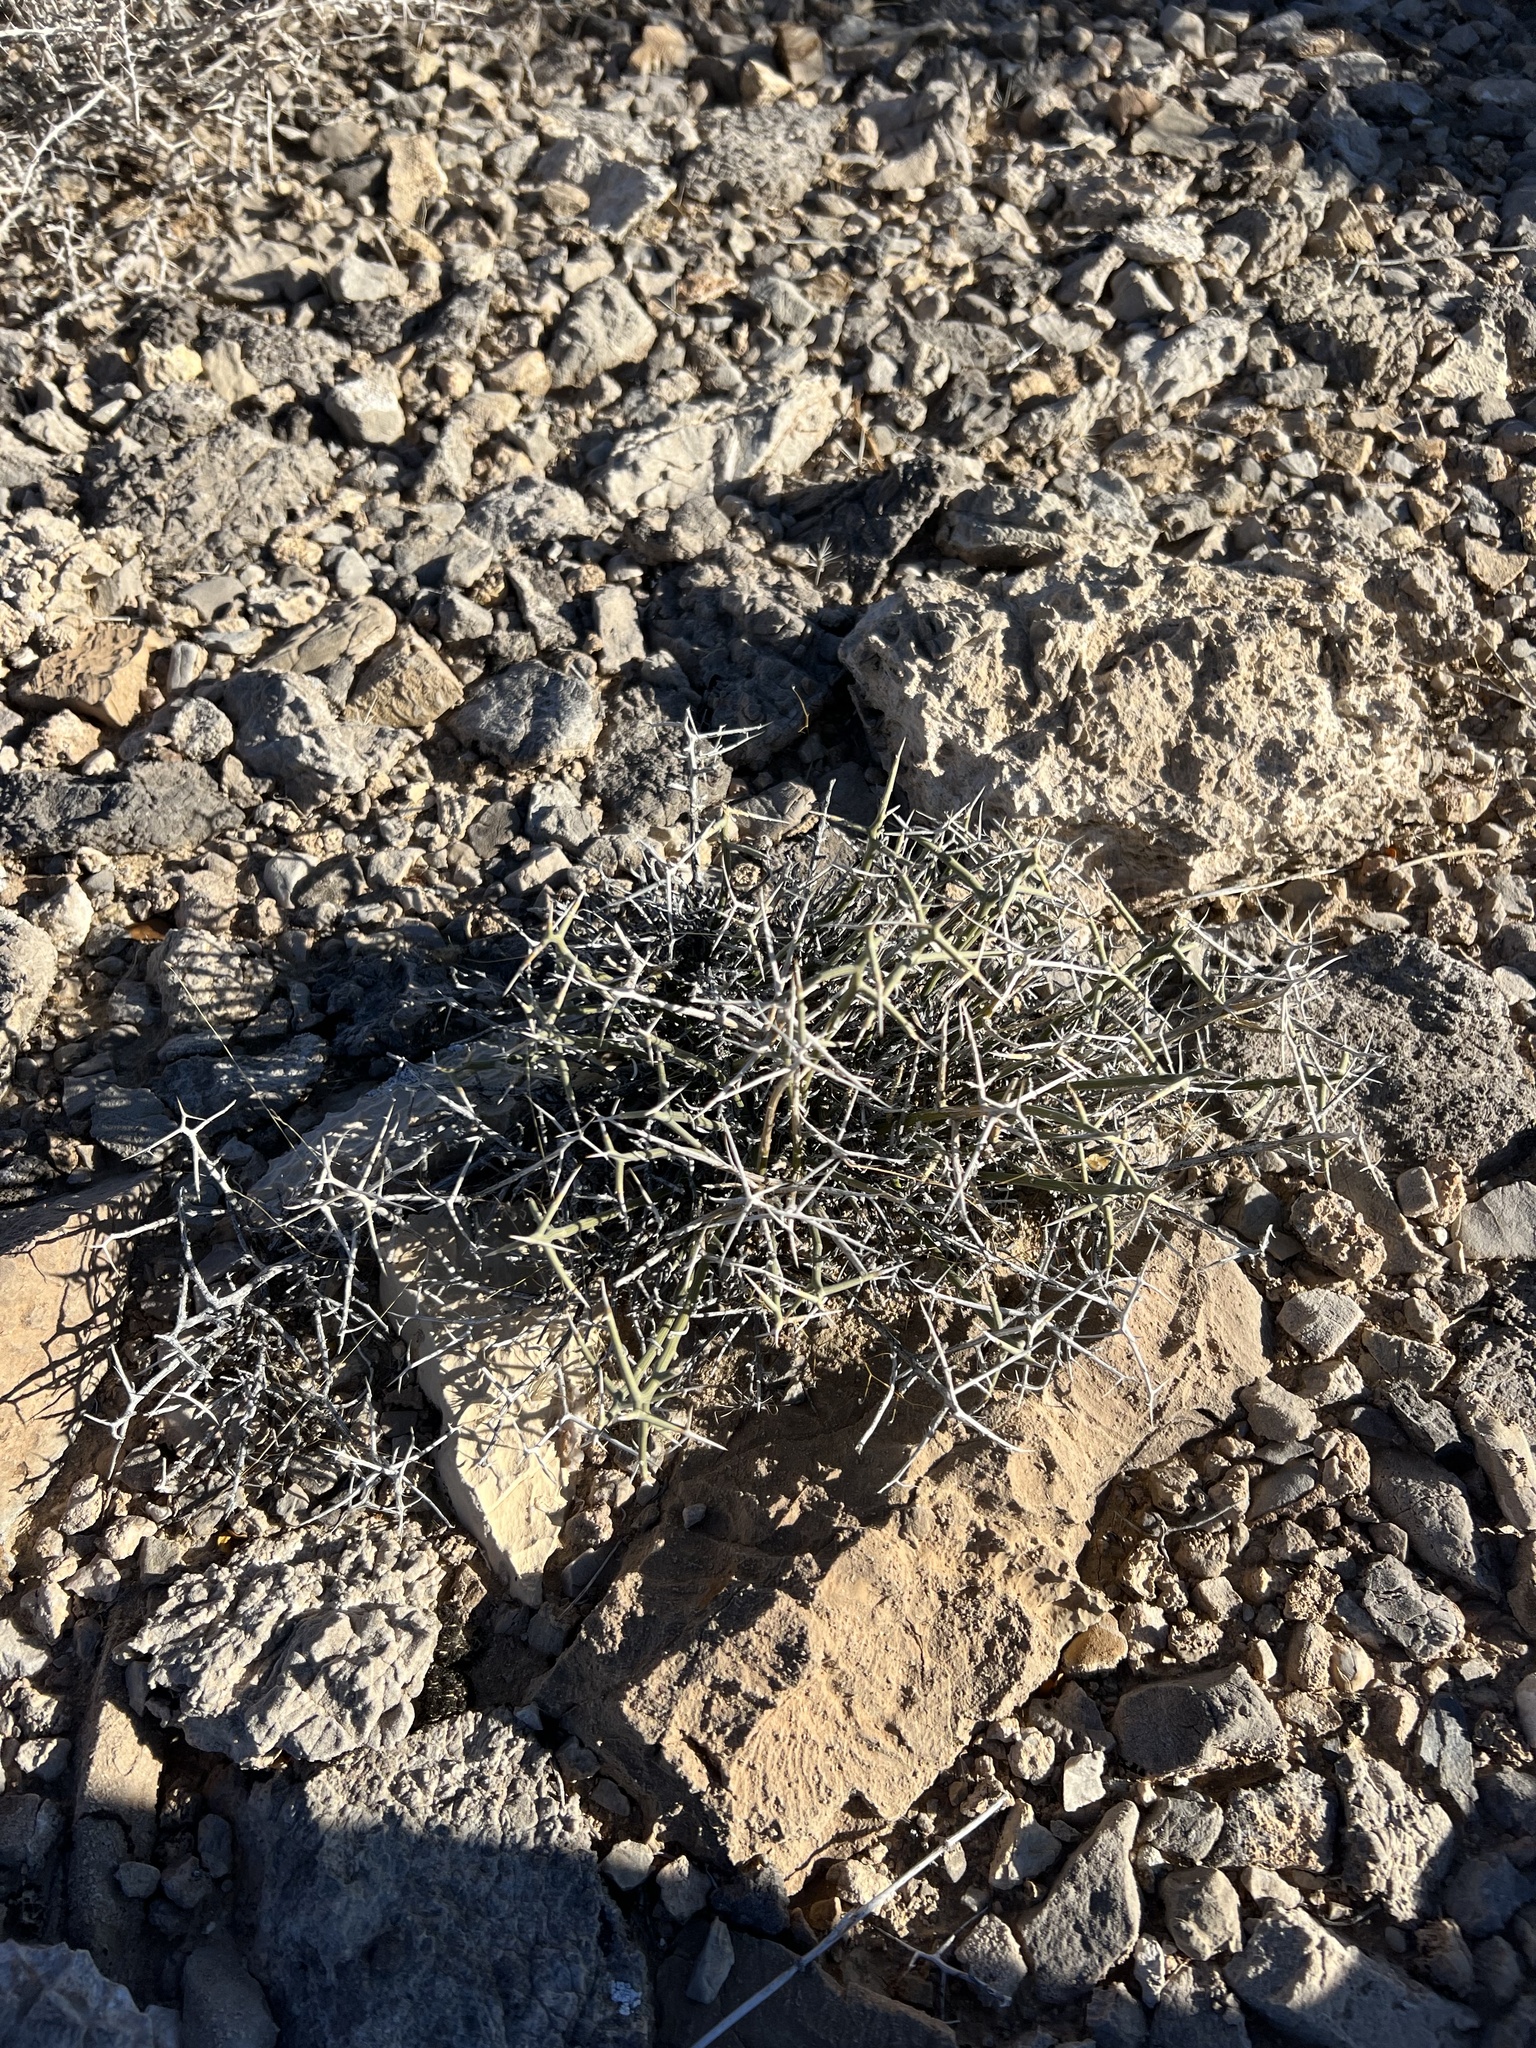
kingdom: Plantae
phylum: Tracheophyta
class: Magnoliopsida
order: Lamiales
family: Oleaceae
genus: Menodora
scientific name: Menodora spinescens
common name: Spiny menodora
